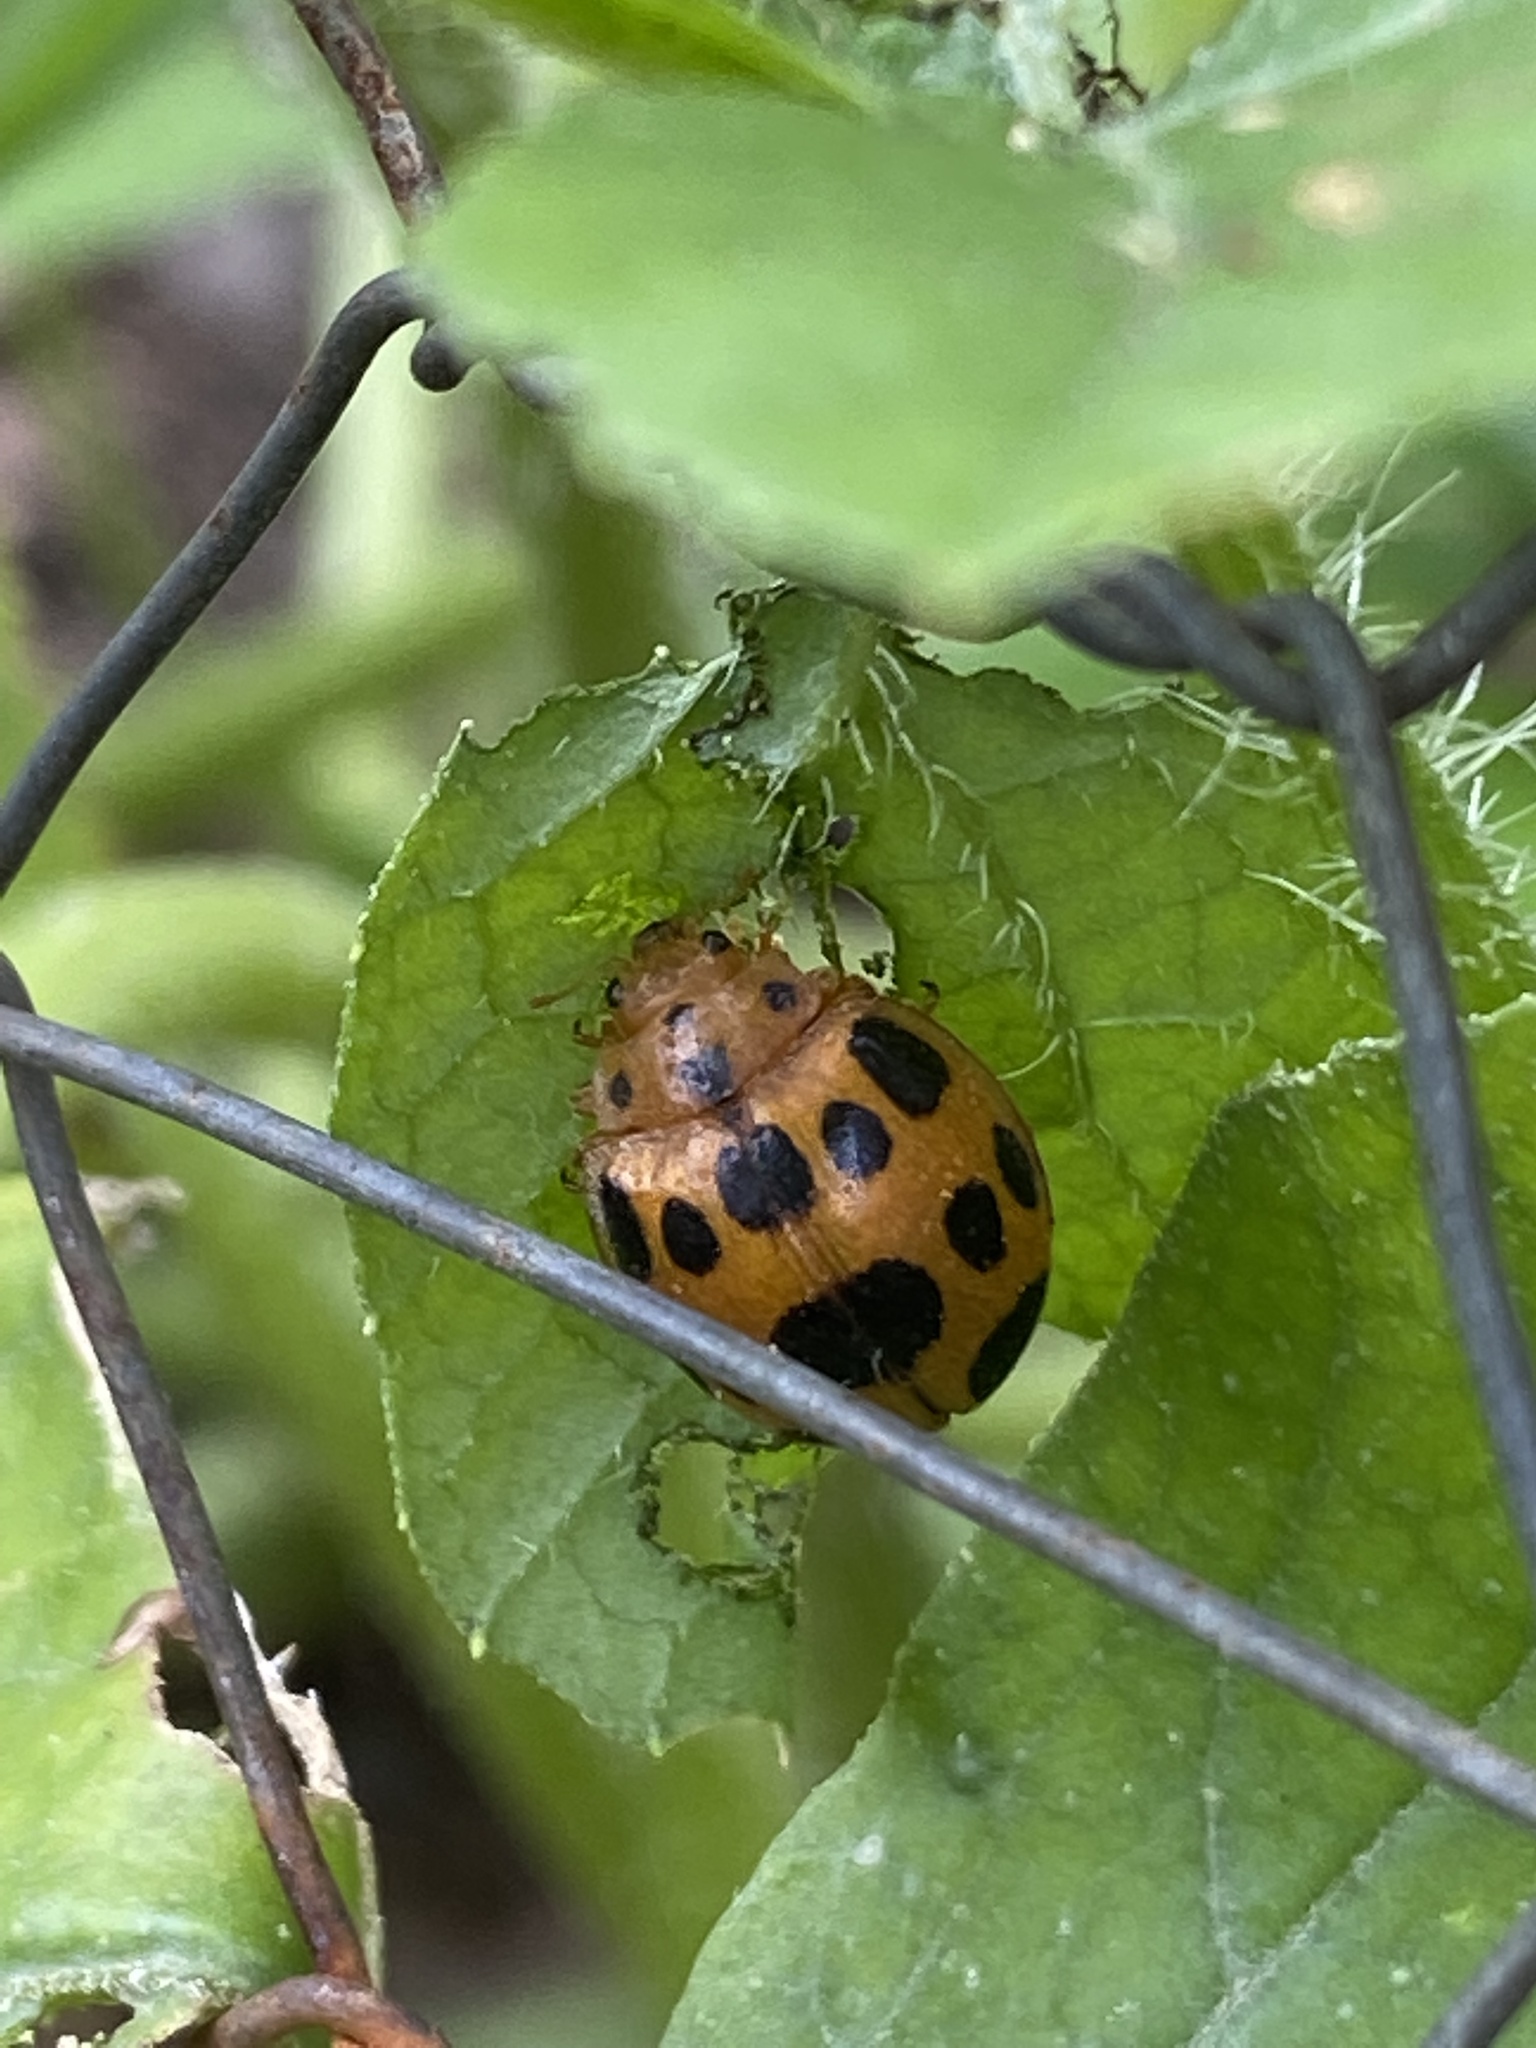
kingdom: Animalia
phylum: Arthropoda
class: Insecta
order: Coleoptera
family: Coccinellidae
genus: Epilachna
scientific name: Epilachna borealis
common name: Squash beetle
